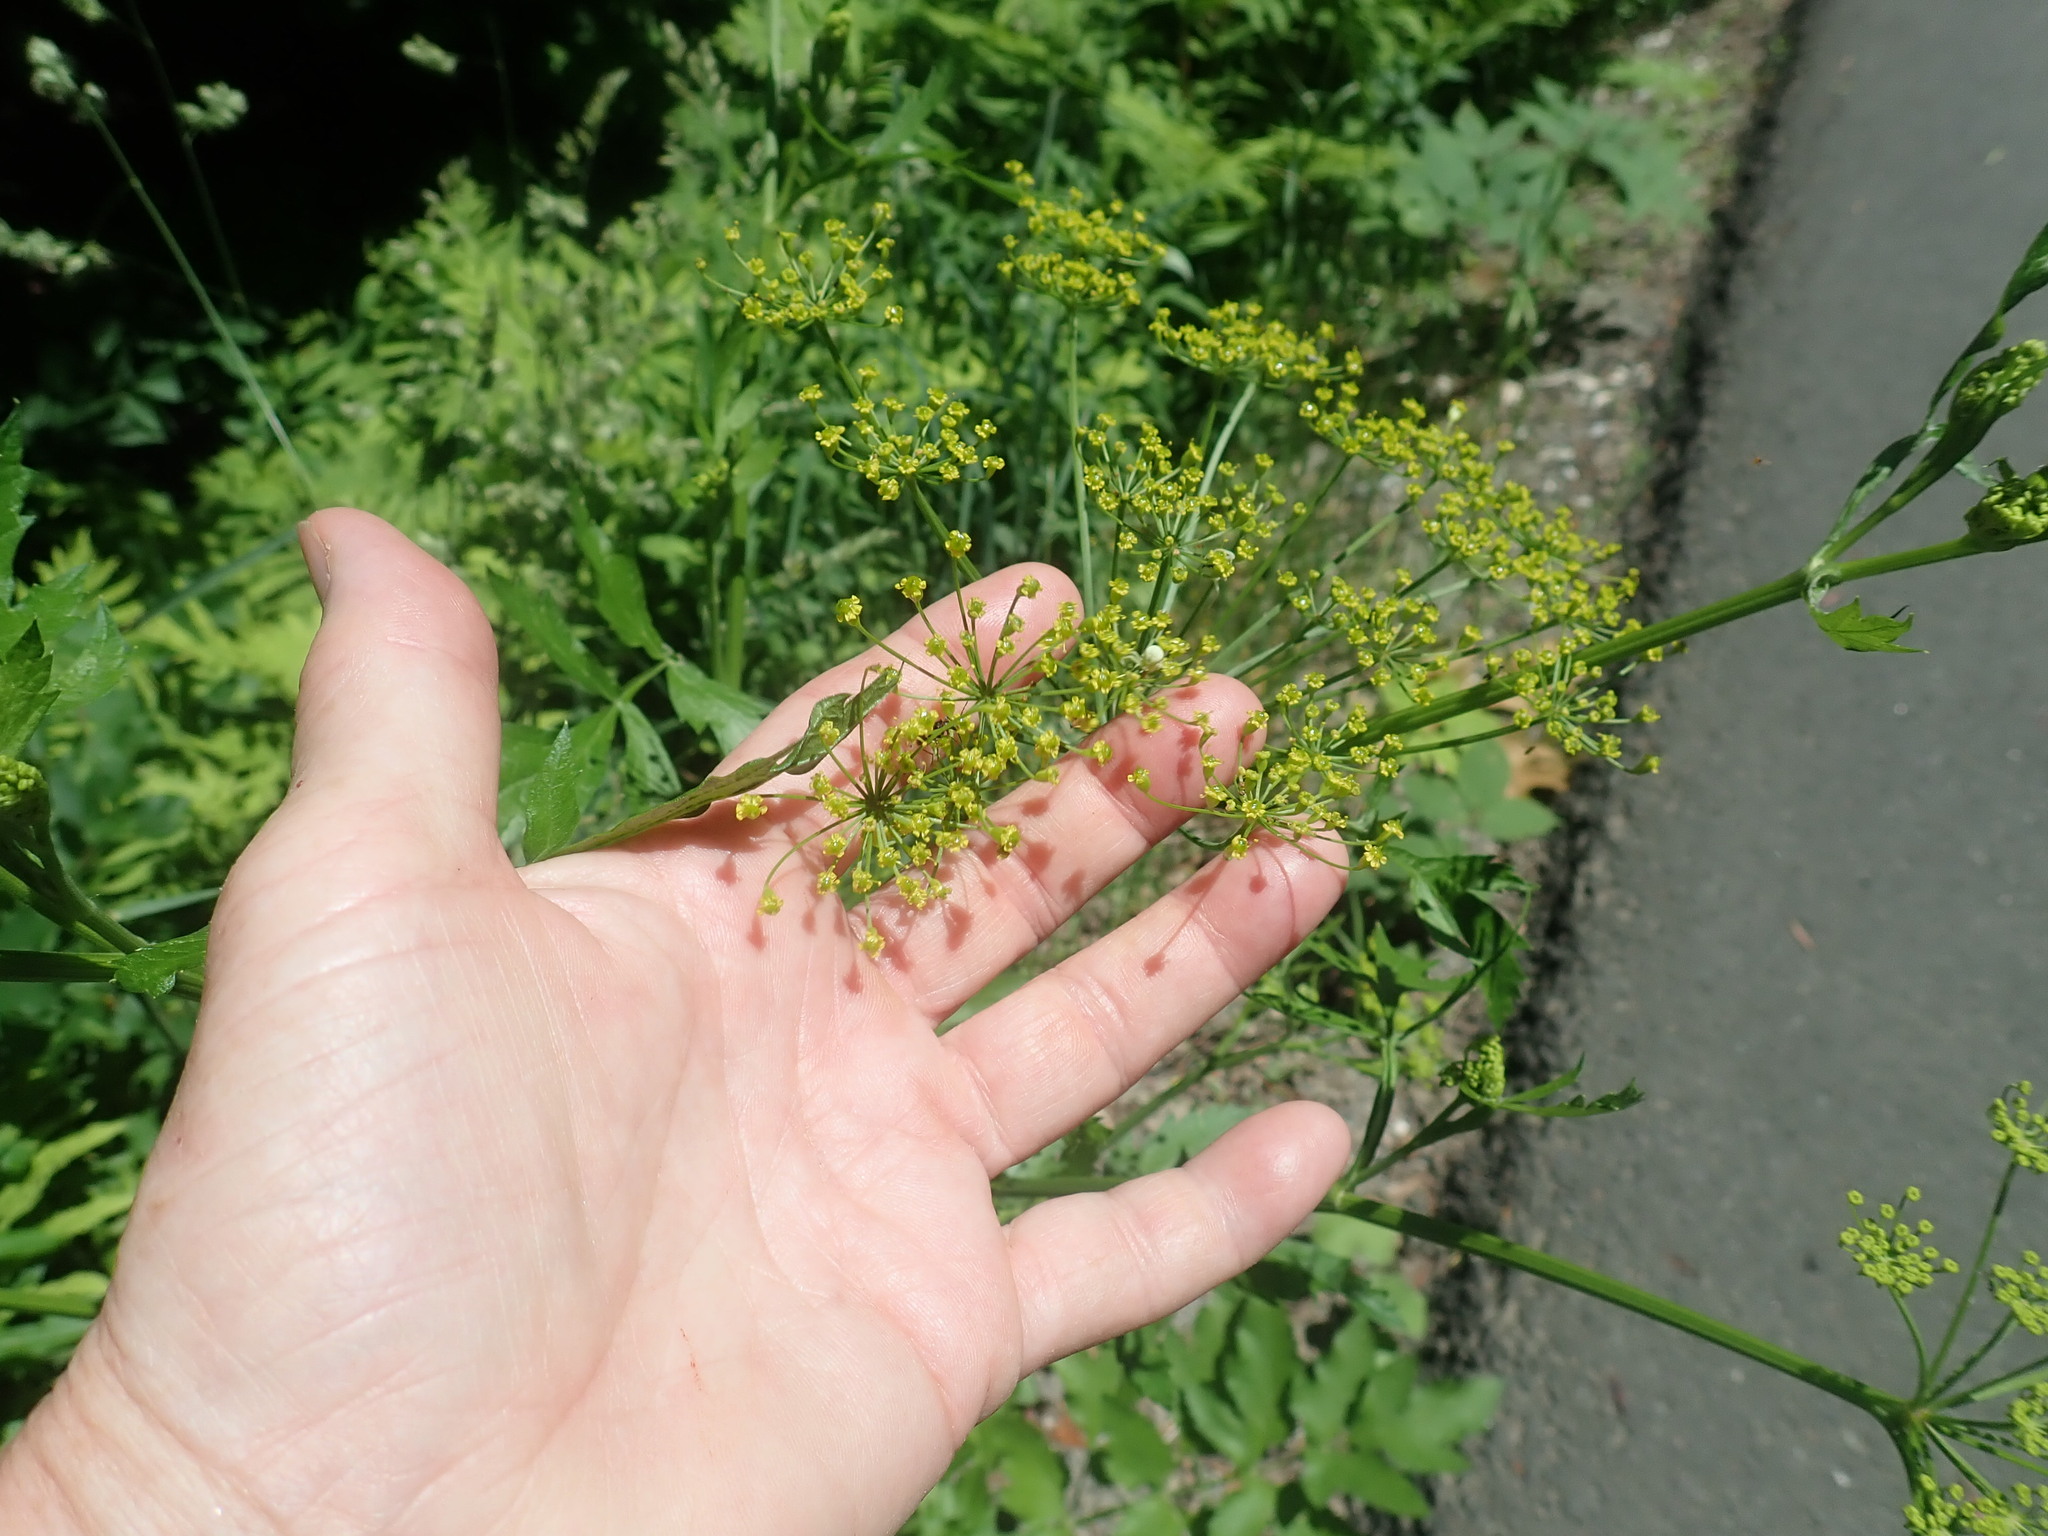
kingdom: Plantae
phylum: Tracheophyta
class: Magnoliopsida
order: Apiales
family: Apiaceae
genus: Pastinaca
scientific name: Pastinaca sativa
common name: Wild parsnip
